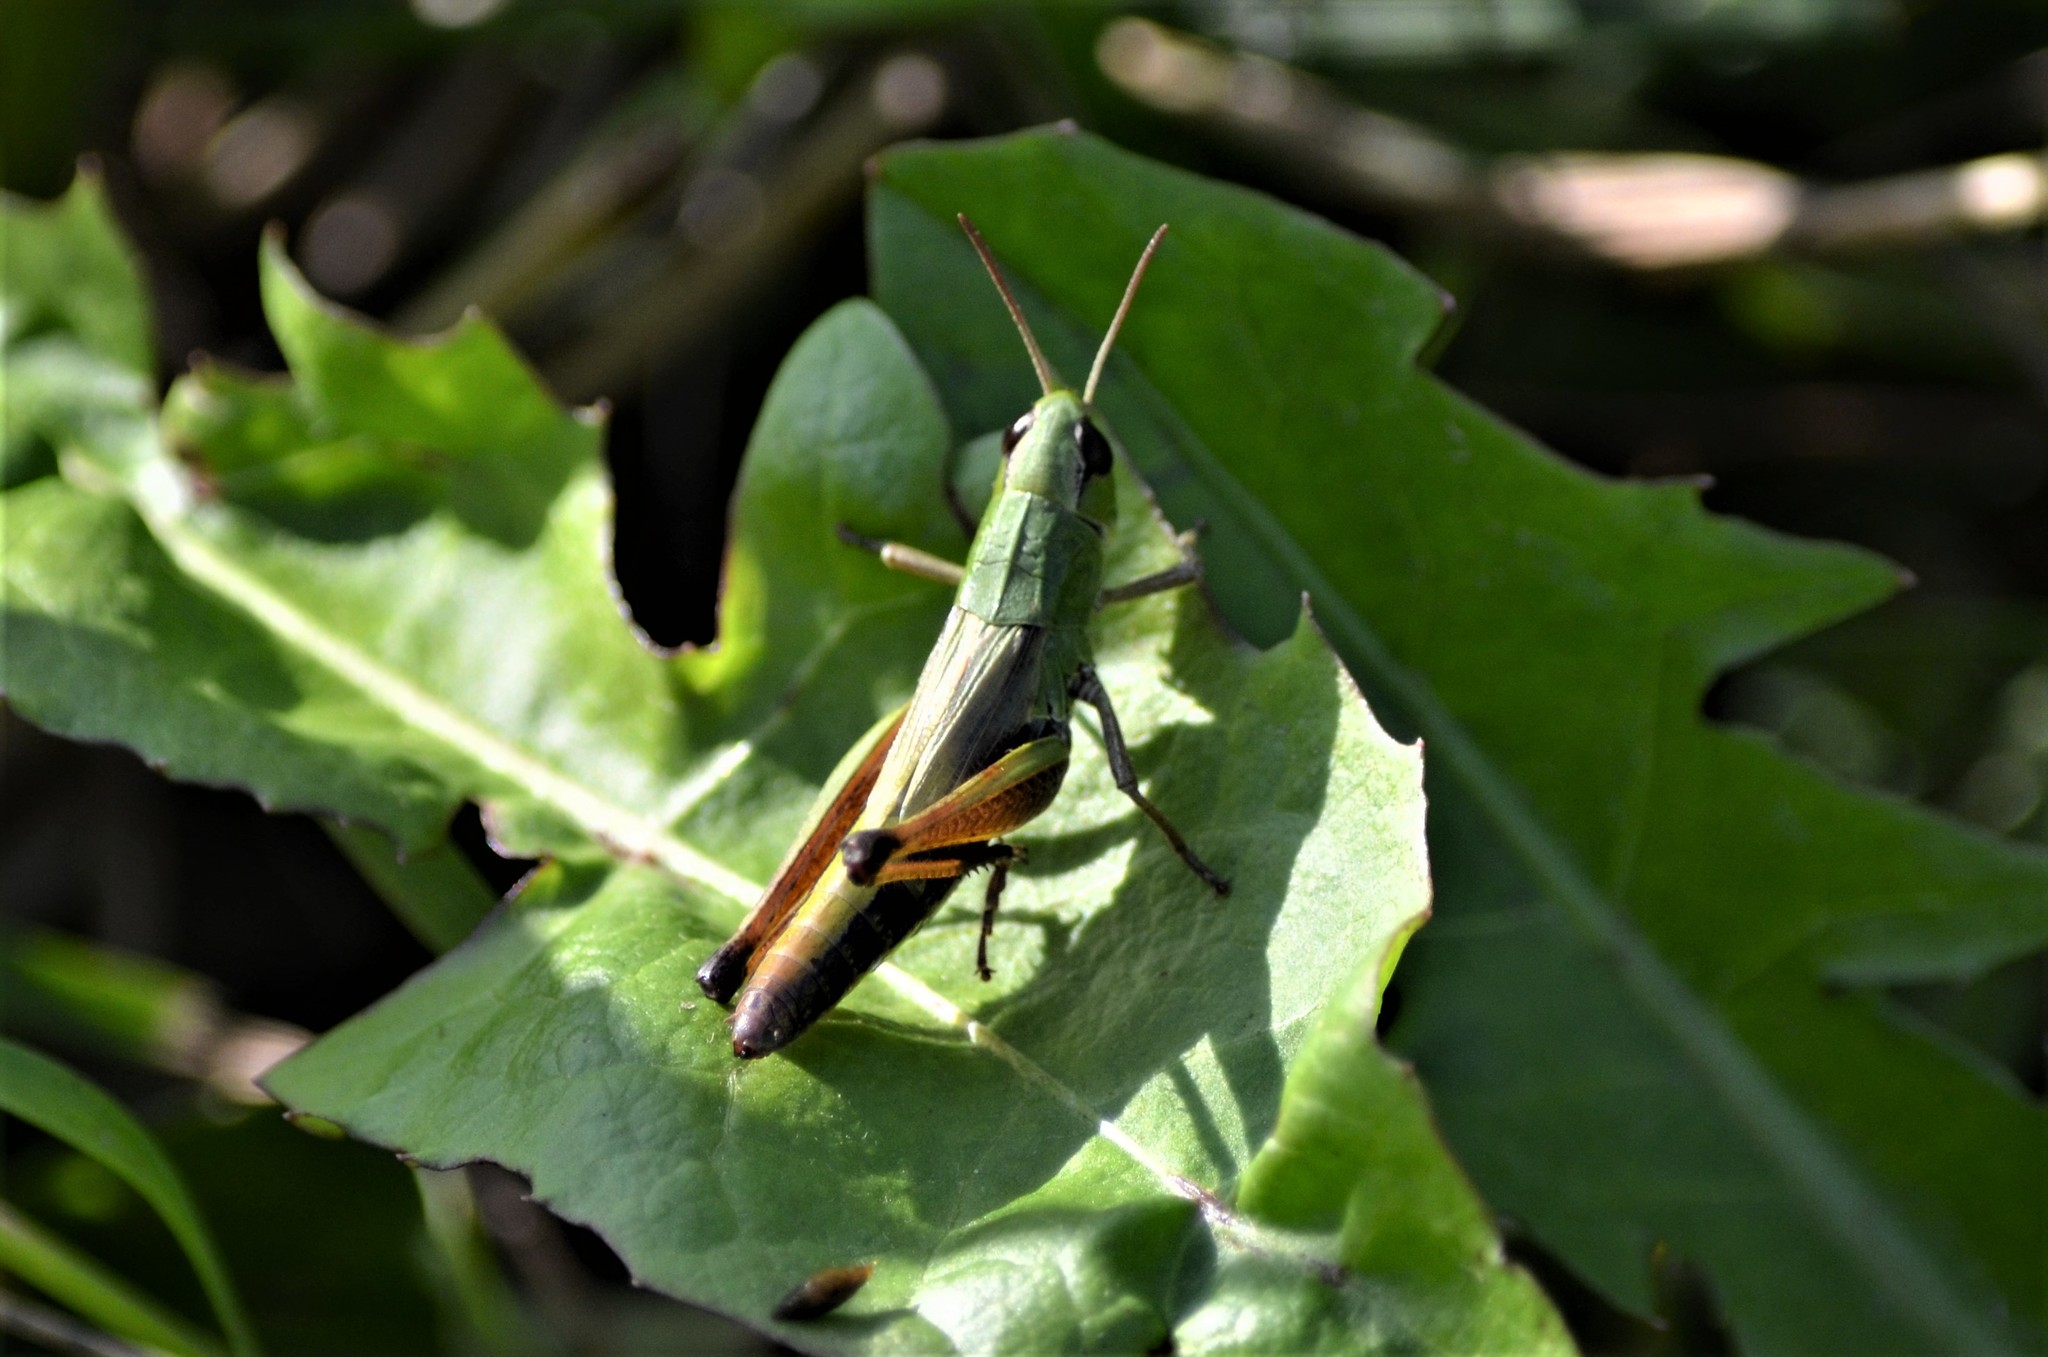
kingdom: Animalia
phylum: Arthropoda
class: Insecta
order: Orthoptera
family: Acrididae
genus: Pseudochorthippus
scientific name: Pseudochorthippus parallelus
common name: Meadow grasshopper
